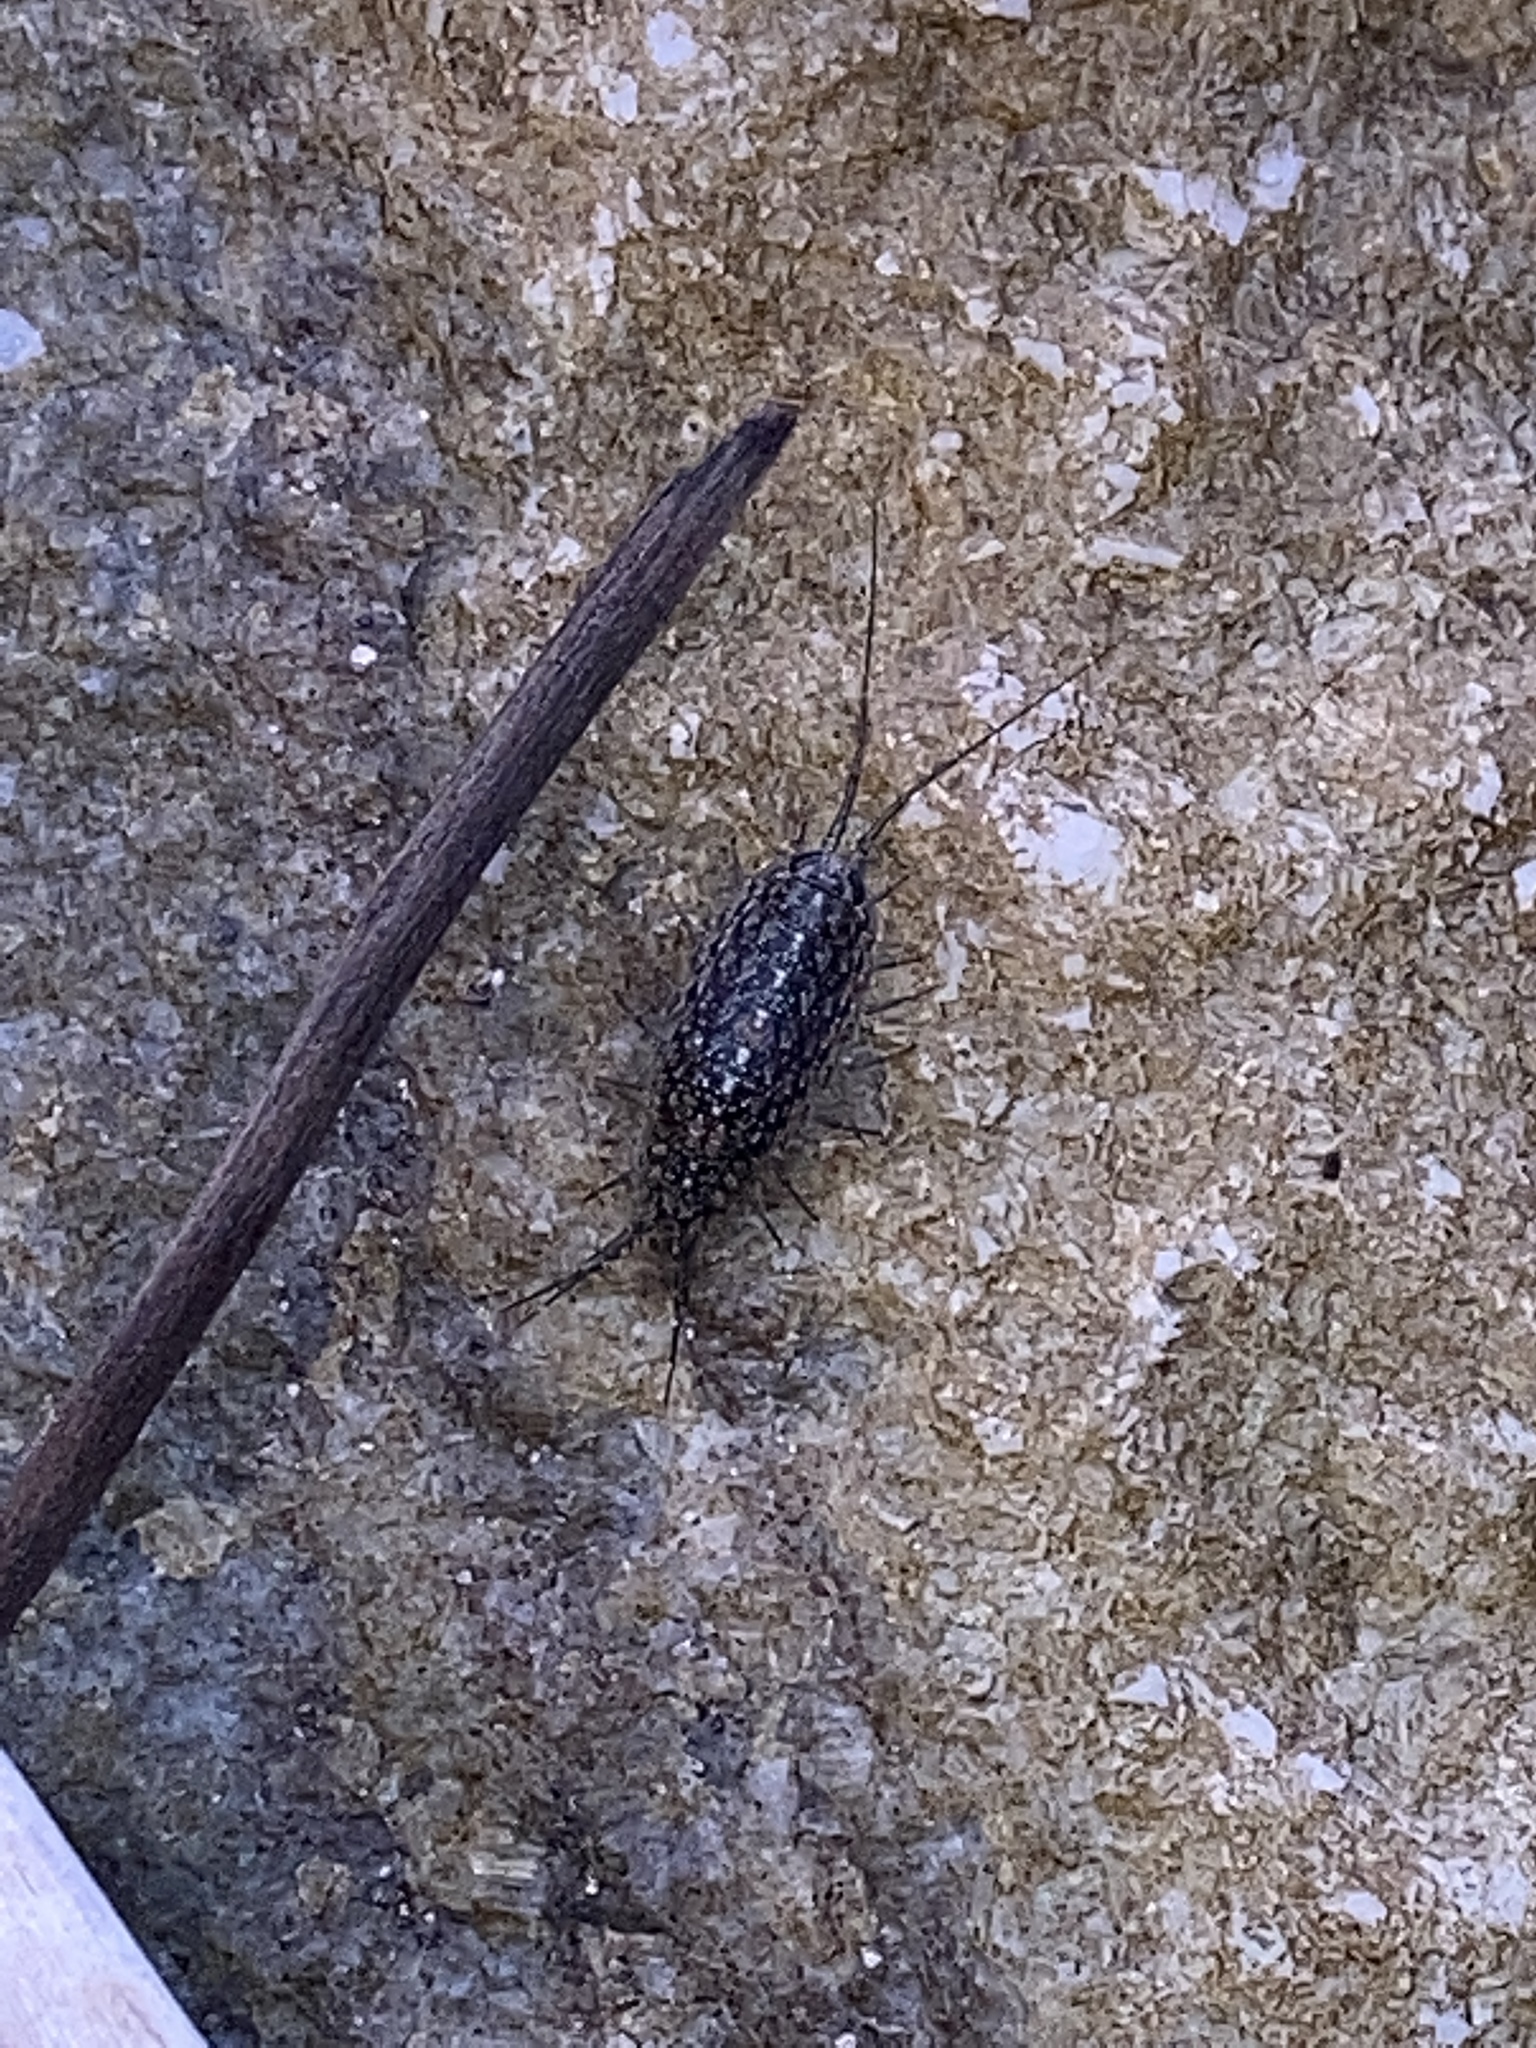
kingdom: Animalia
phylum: Arthropoda
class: Malacostraca
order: Isopoda
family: Ligiidae
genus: Ligia
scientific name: Ligia exotica
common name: Wharf roach
